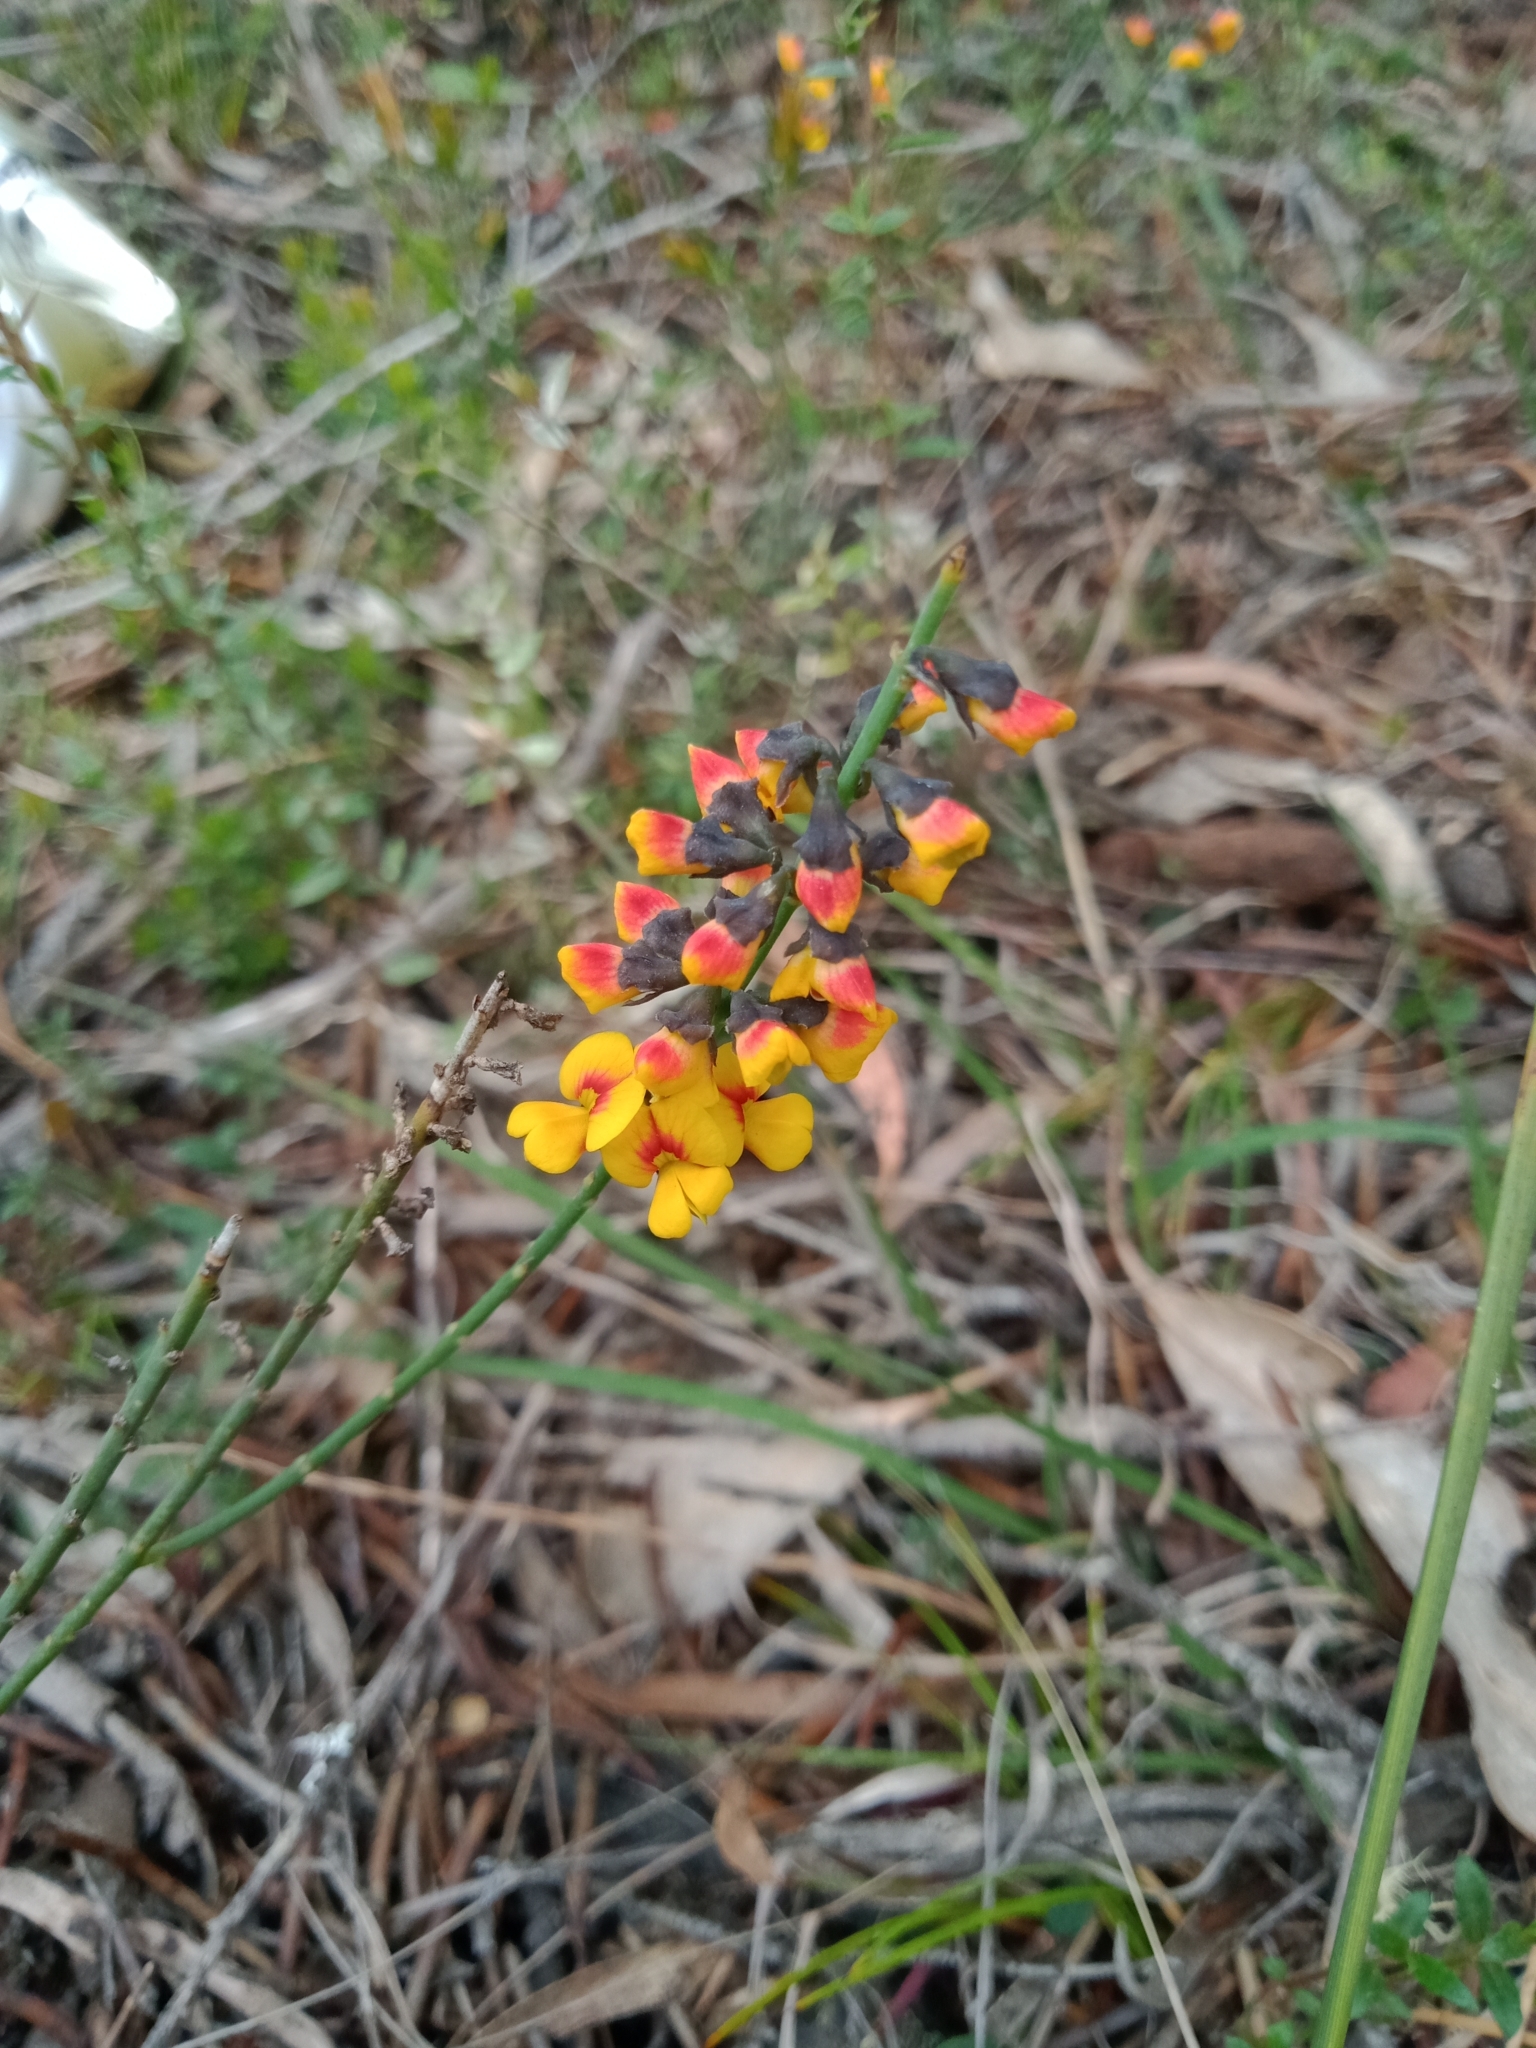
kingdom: Plantae
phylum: Tracheophyta
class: Magnoliopsida
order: Fabales
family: Fabaceae
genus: Sphaerolobium
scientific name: Sphaerolobium minus
